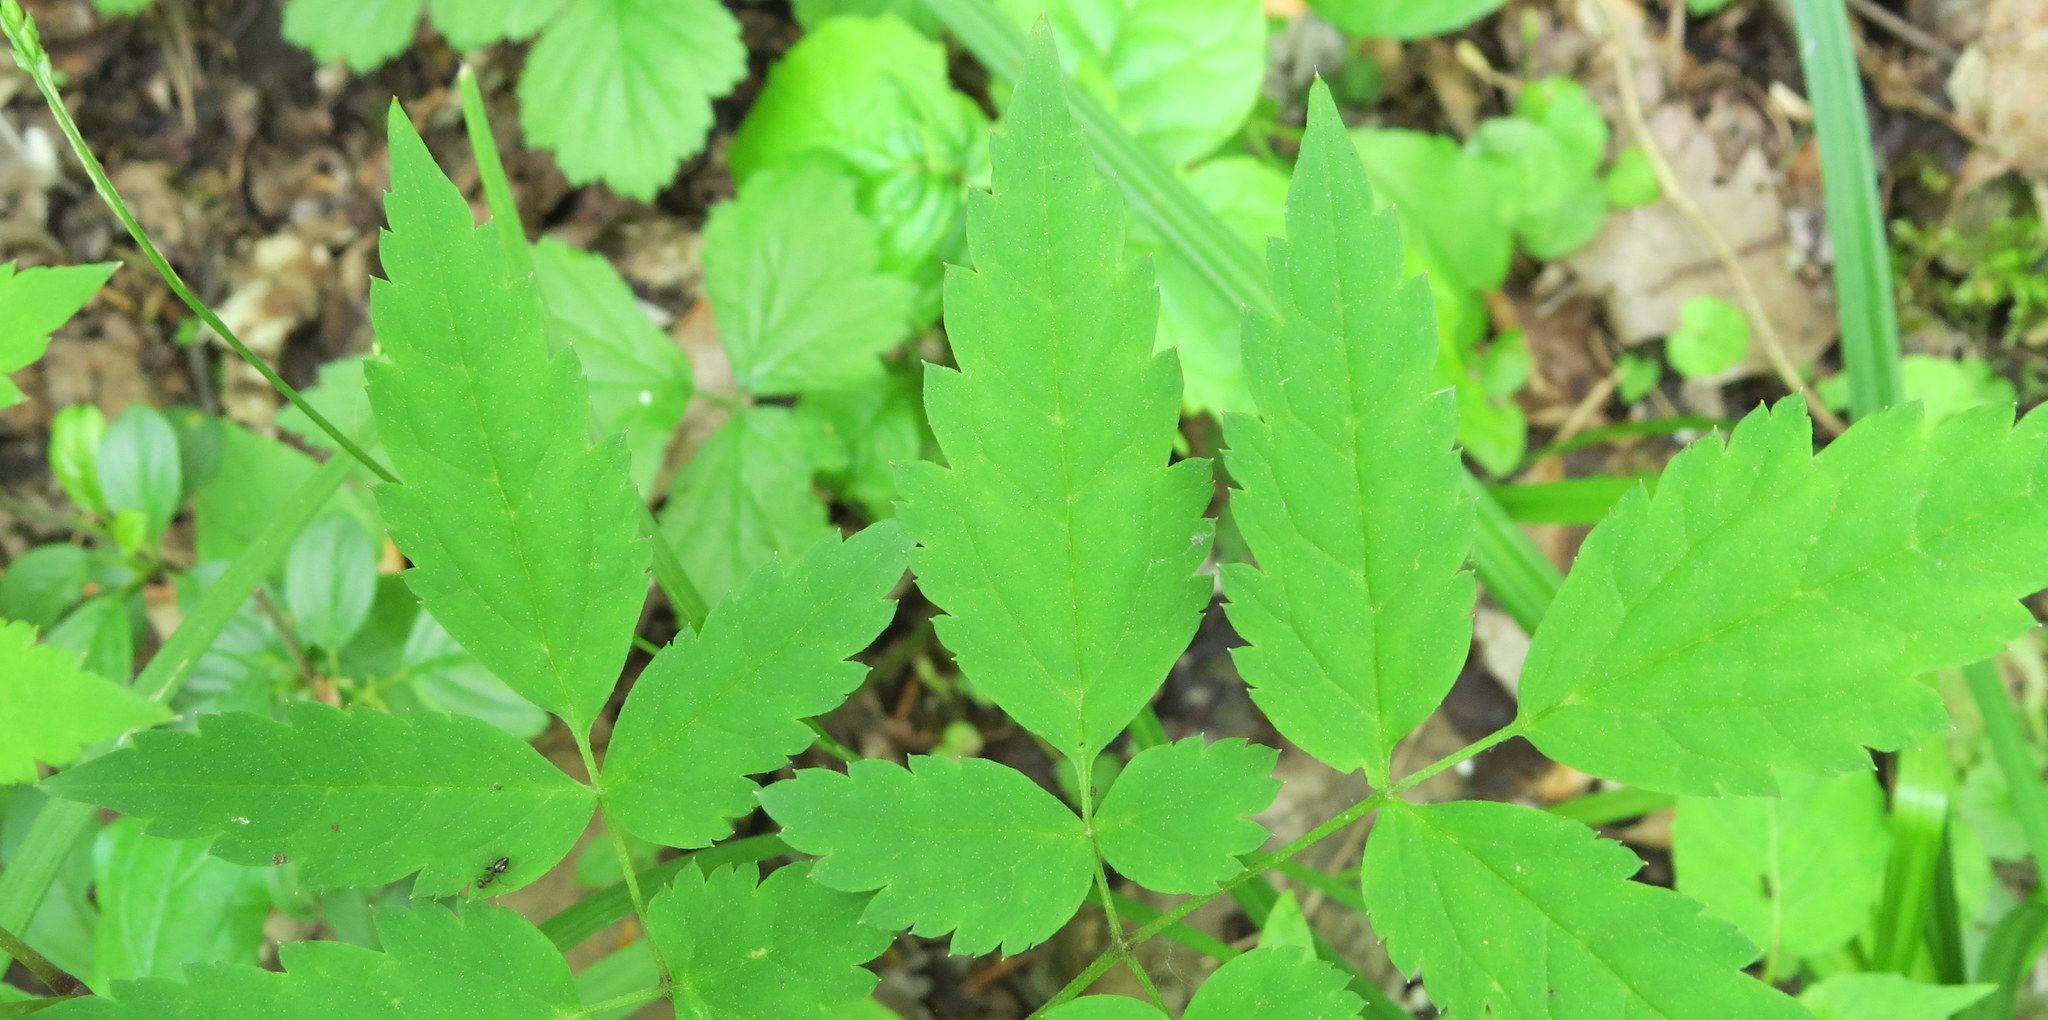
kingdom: Plantae
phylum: Tracheophyta
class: Magnoliopsida
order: Ranunculales
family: Ranunculaceae
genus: Actaea
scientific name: Actaea pachypoda
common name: Doll's-eyes
